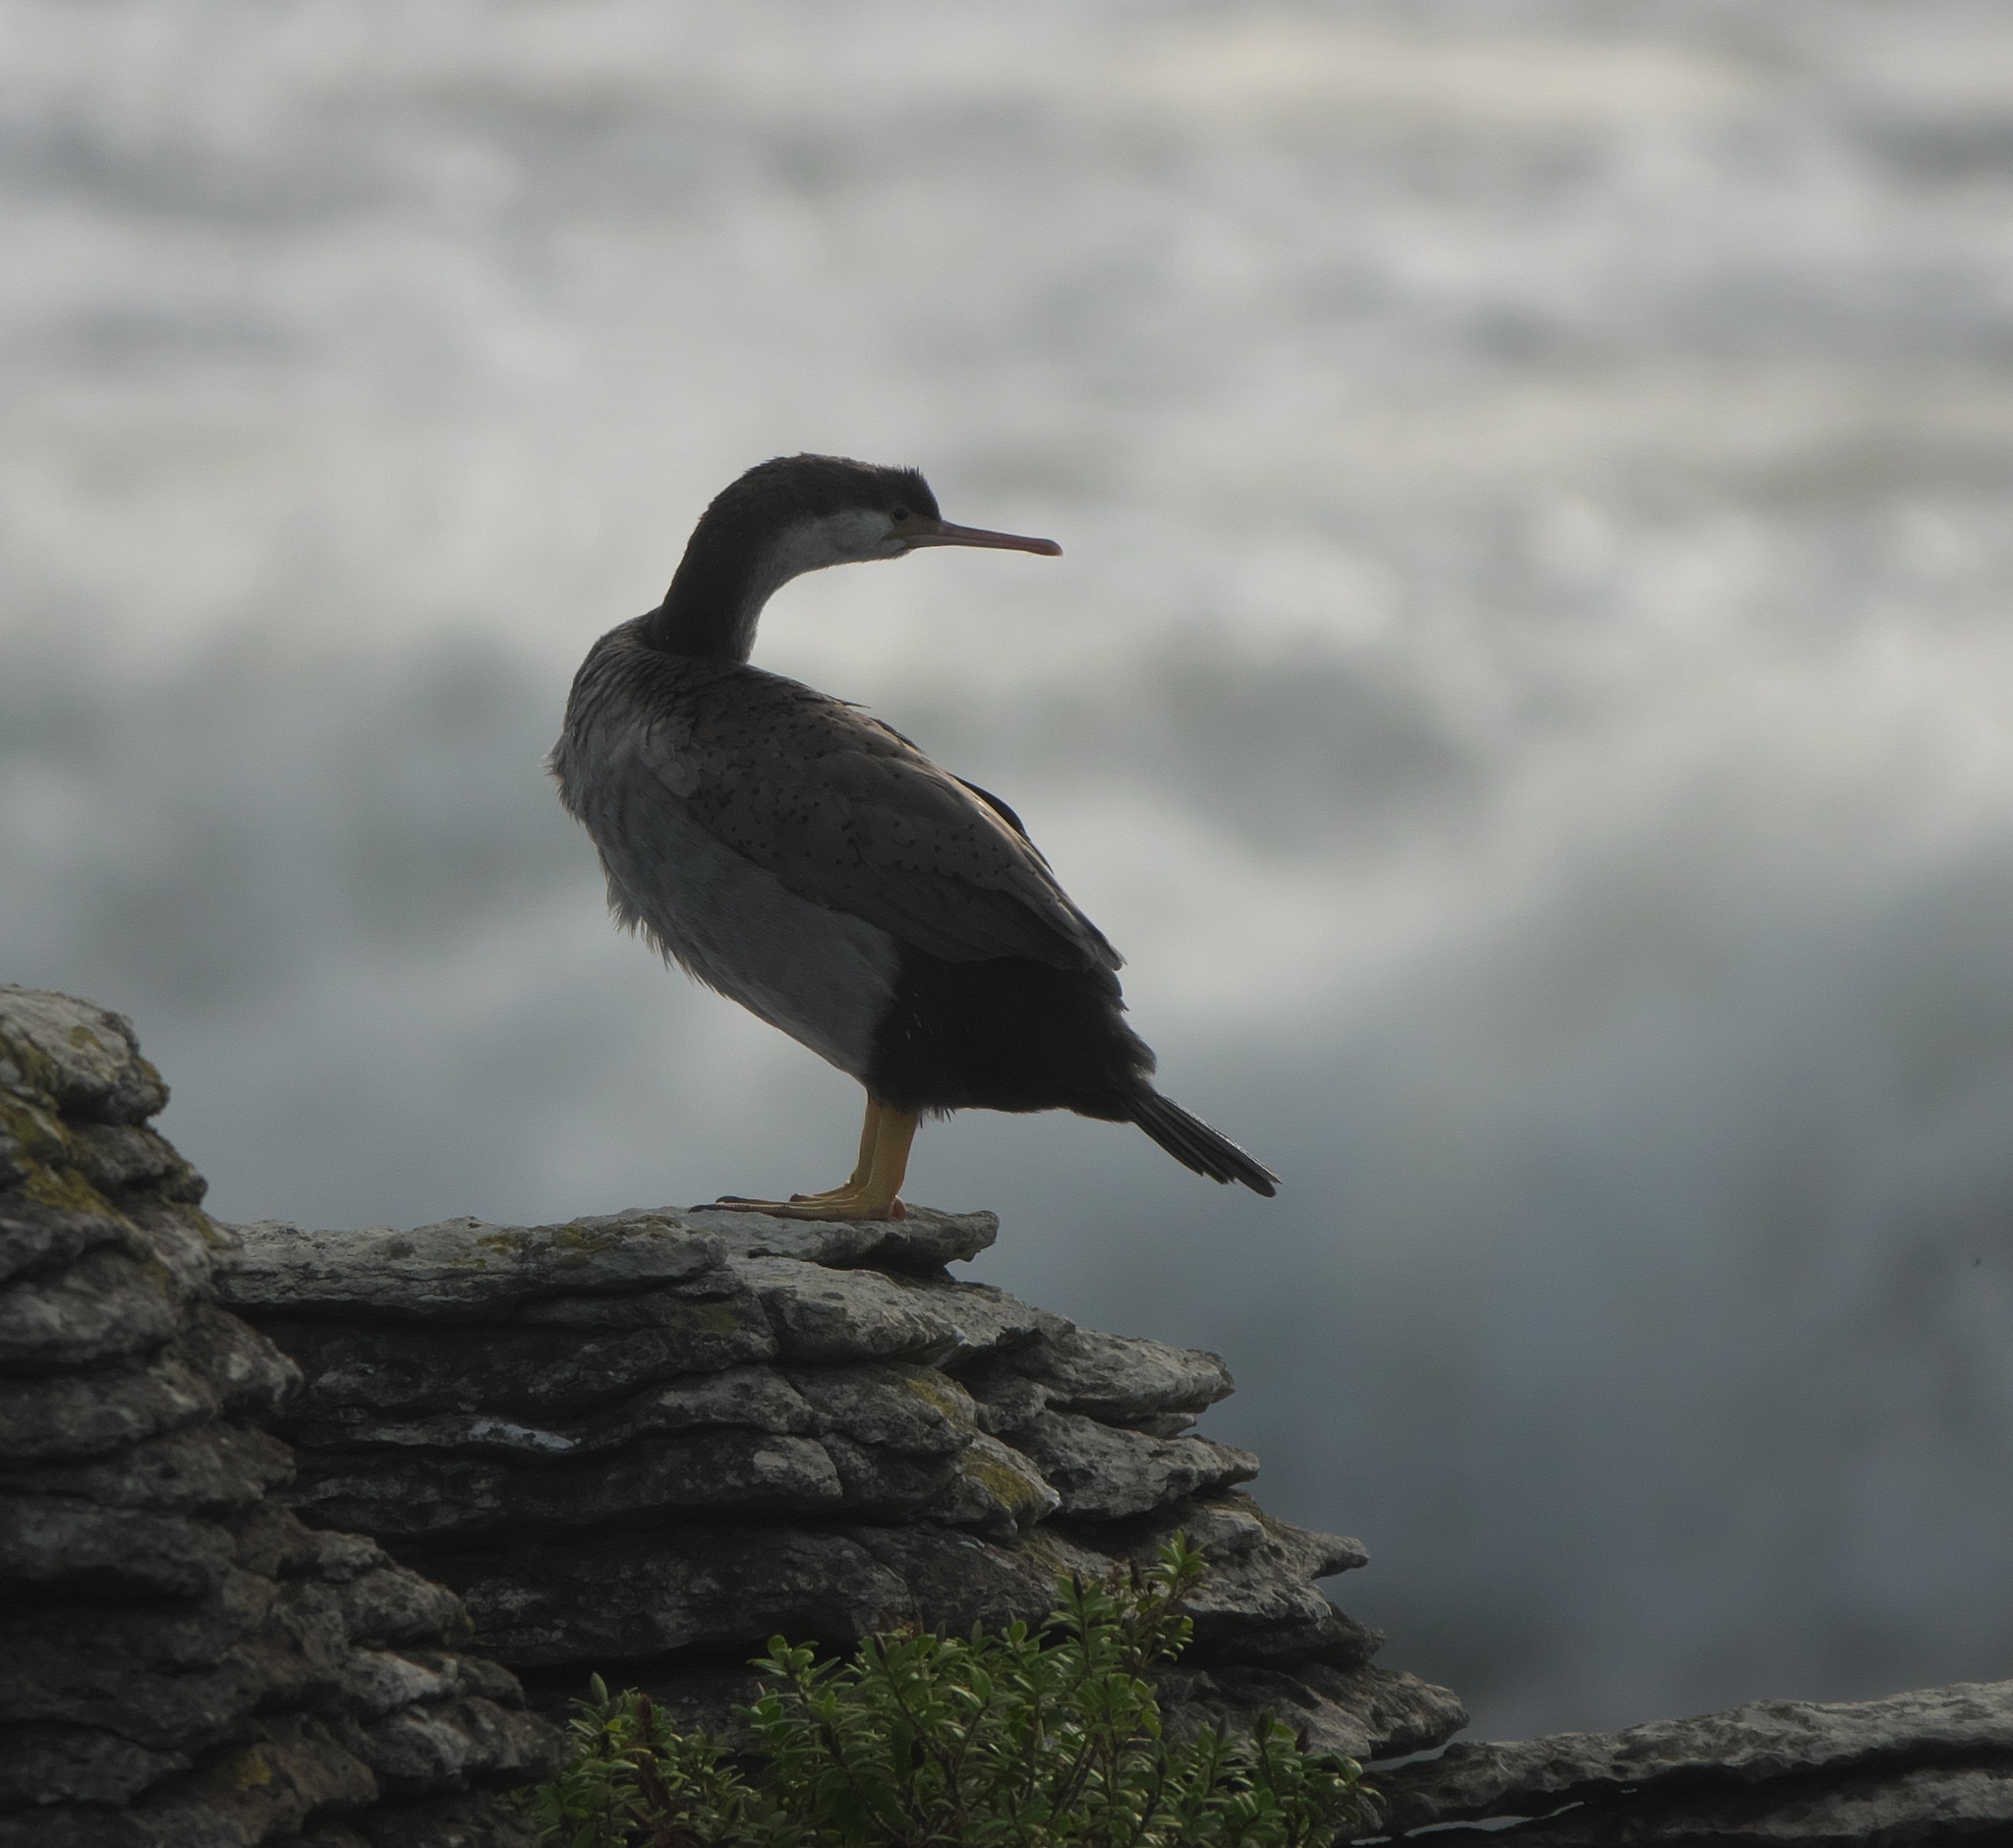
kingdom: Animalia
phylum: Chordata
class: Aves
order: Suliformes
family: Phalacrocoracidae
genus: Phalacrocorax
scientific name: Phalacrocorax punctatus
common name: Spotted shag
